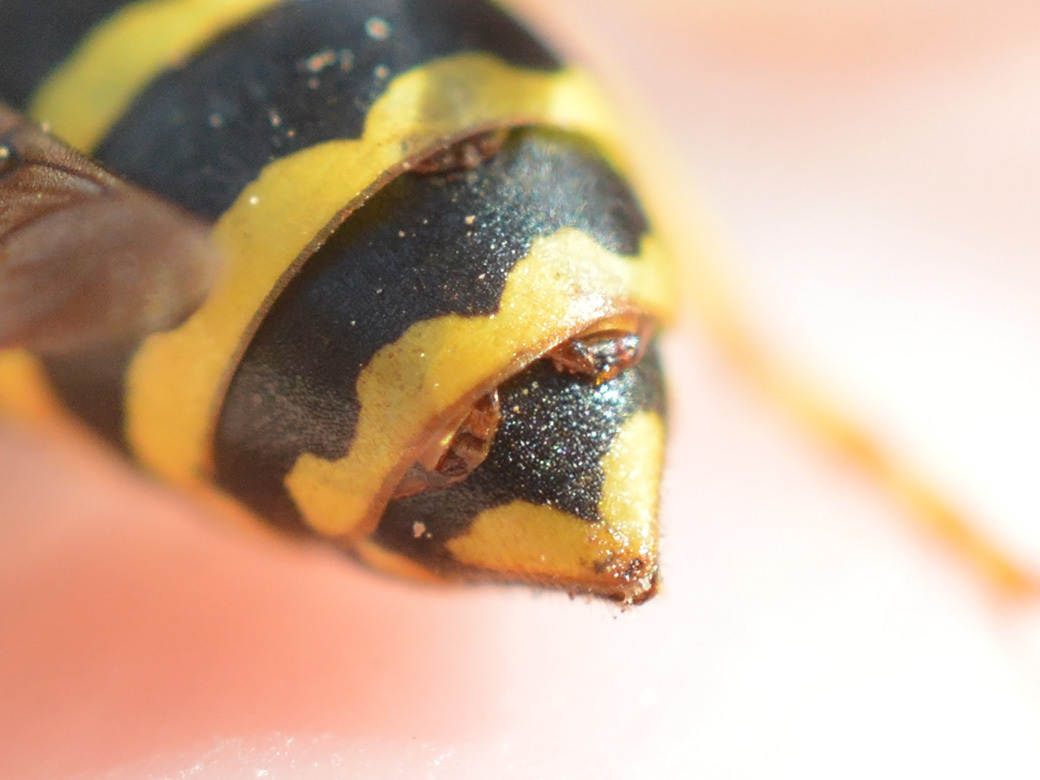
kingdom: Animalia
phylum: Arthropoda
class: Insecta
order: Strepsiptera
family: Xenidae
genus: Xenos
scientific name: Xenos vesparum
